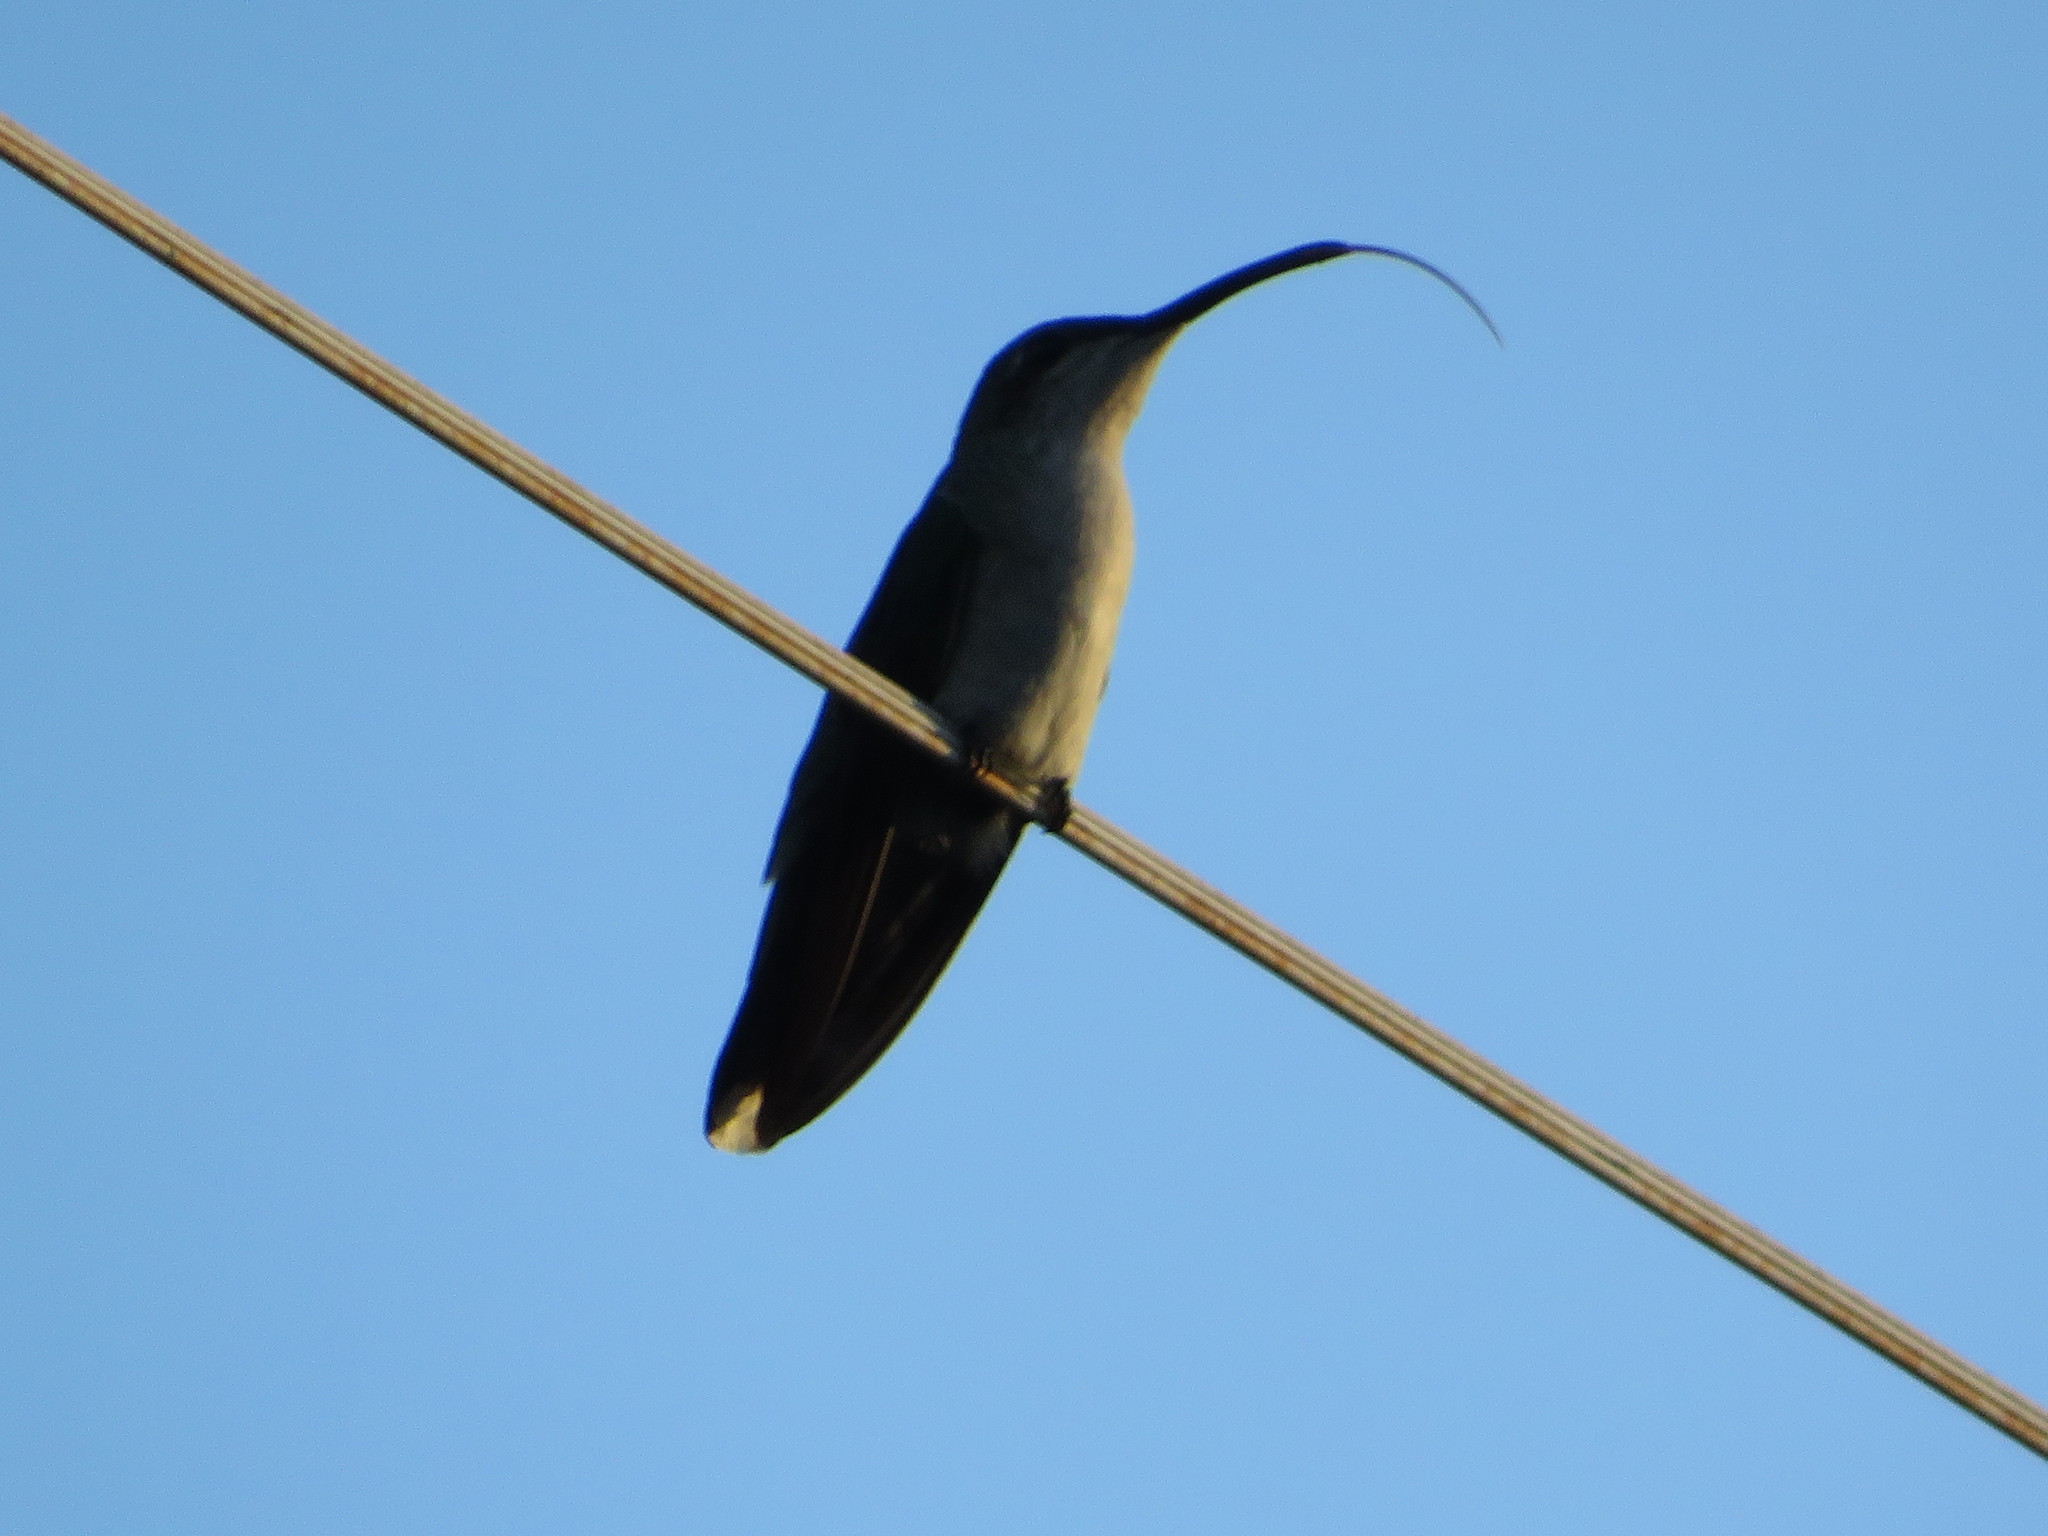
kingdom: Animalia
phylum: Chordata
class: Aves
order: Apodiformes
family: Trochilidae
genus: Anthracothorax
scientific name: Anthracothorax dominicus
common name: Antillean mango
